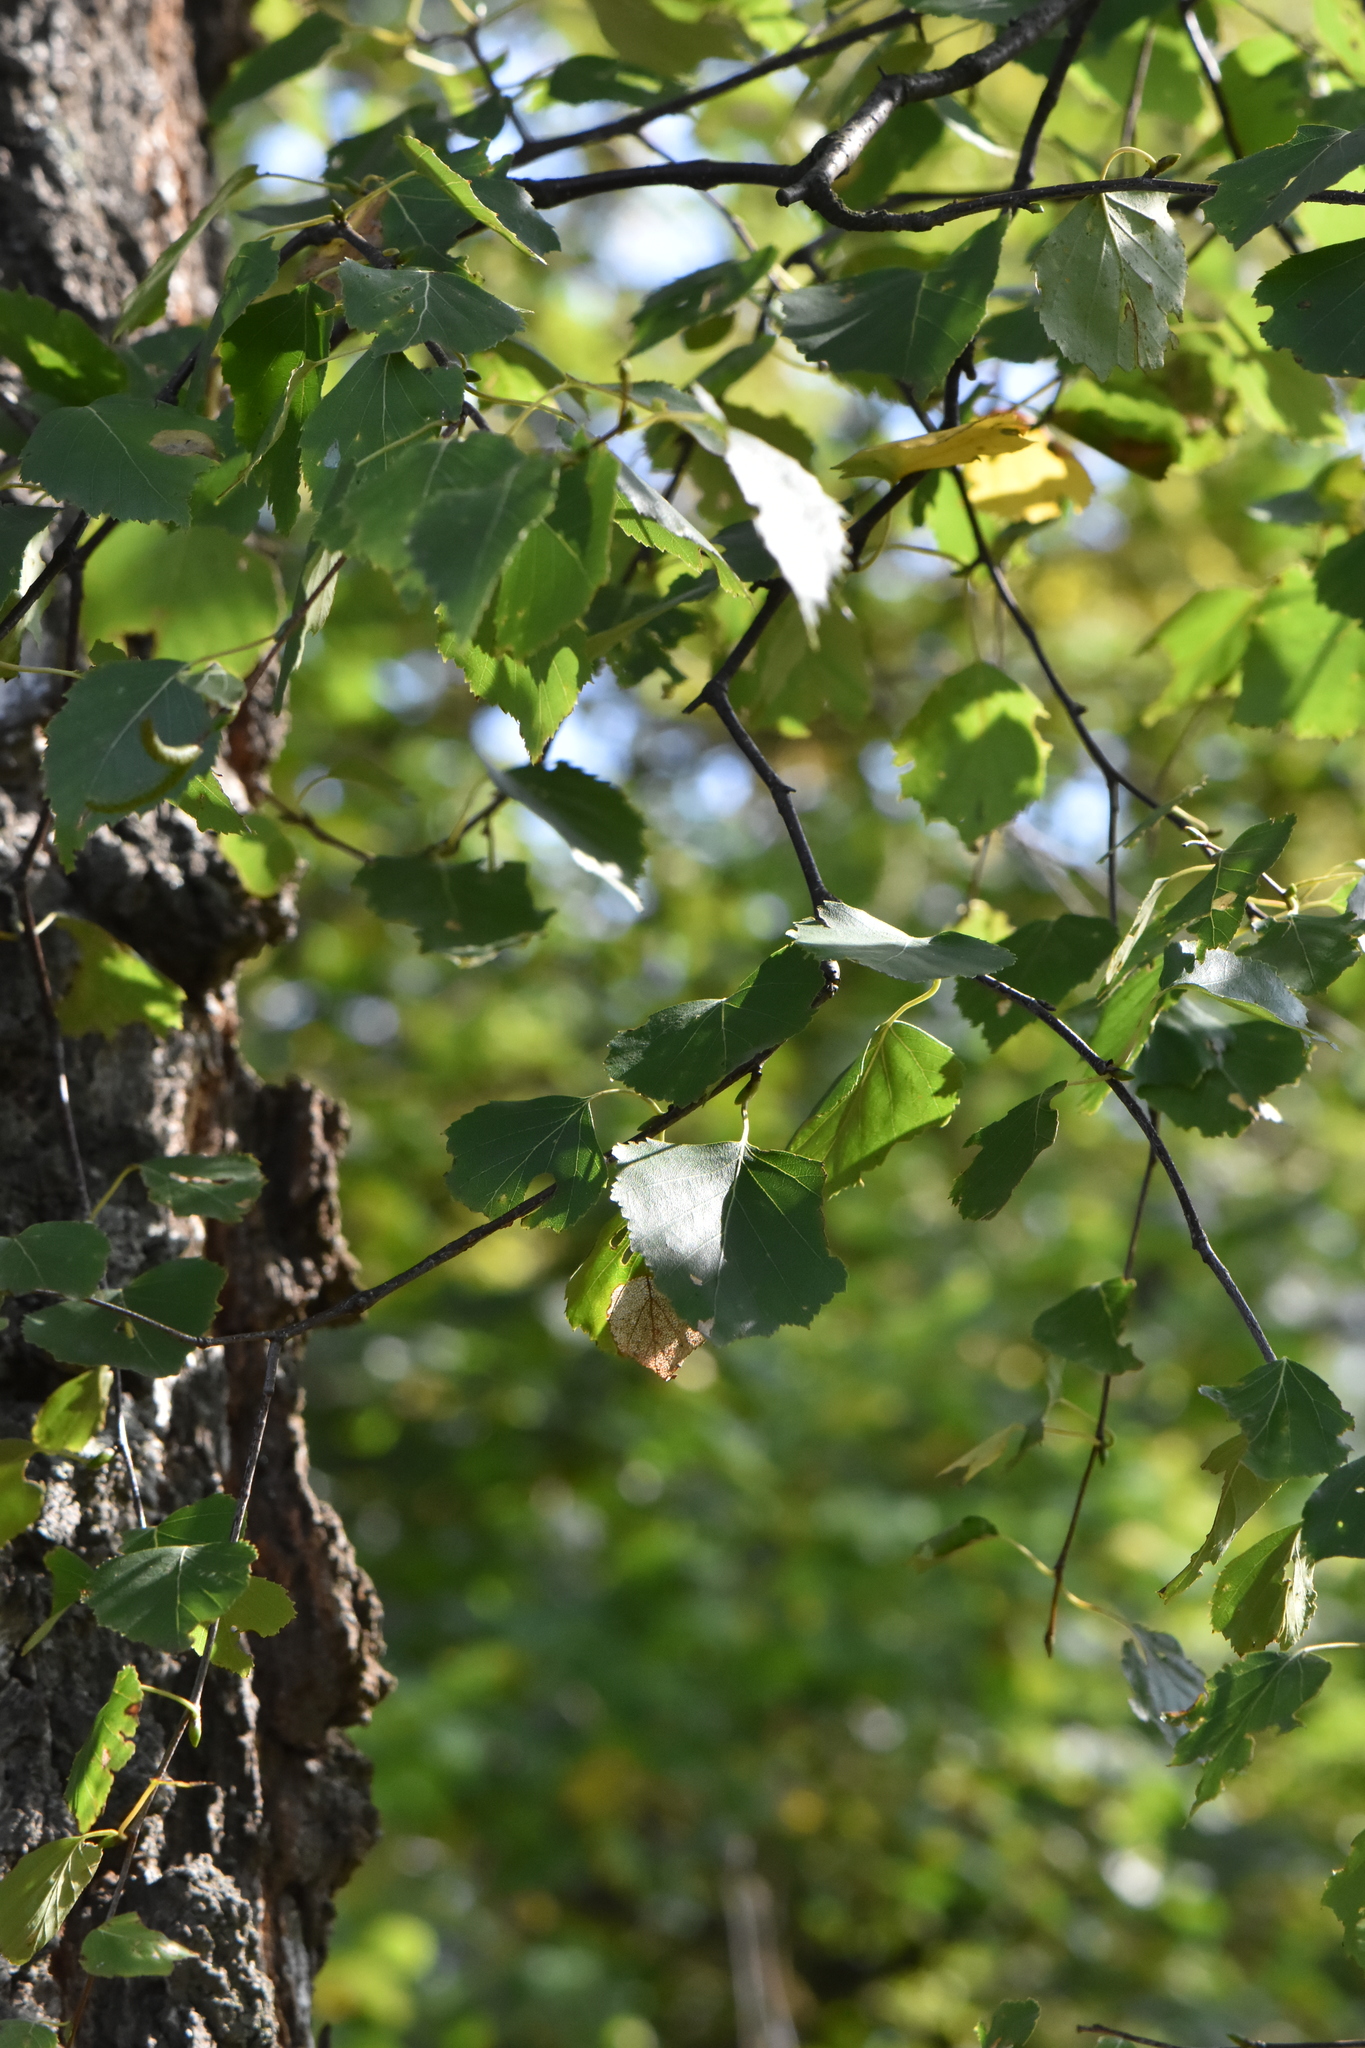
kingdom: Plantae
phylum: Tracheophyta
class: Magnoliopsida
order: Fagales
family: Betulaceae
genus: Betula
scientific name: Betula pendula
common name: Silver birch
